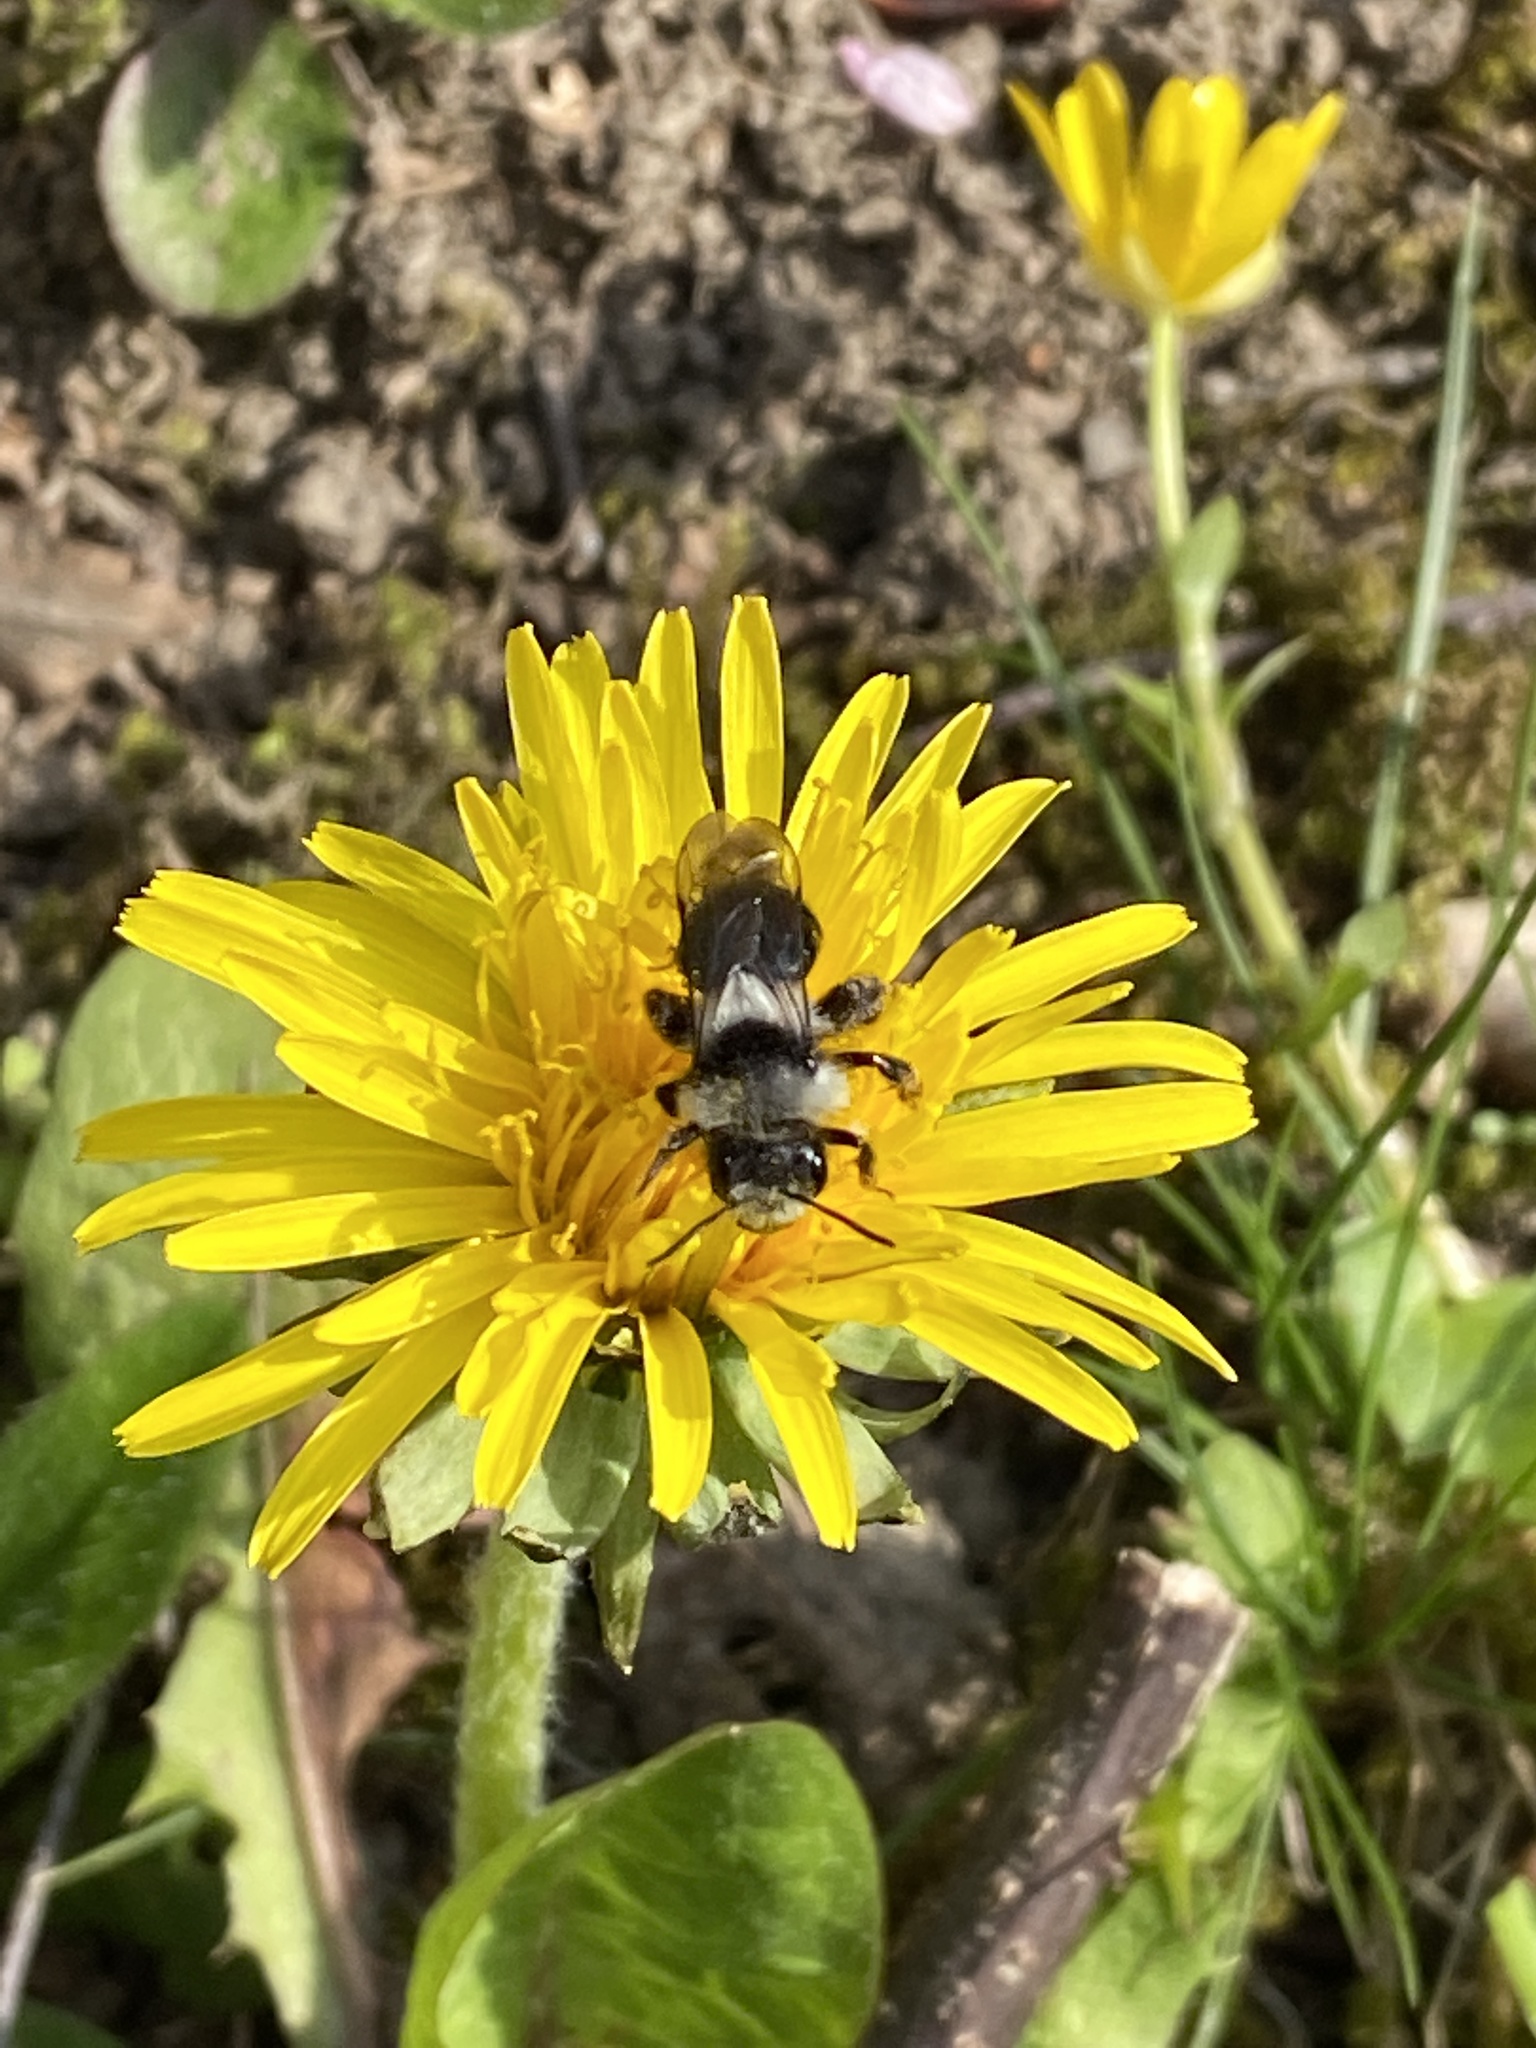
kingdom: Animalia
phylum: Arthropoda
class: Insecta
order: Hymenoptera
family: Andrenidae
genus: Andrena
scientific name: Andrena cineraria
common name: Ashy mining bee
